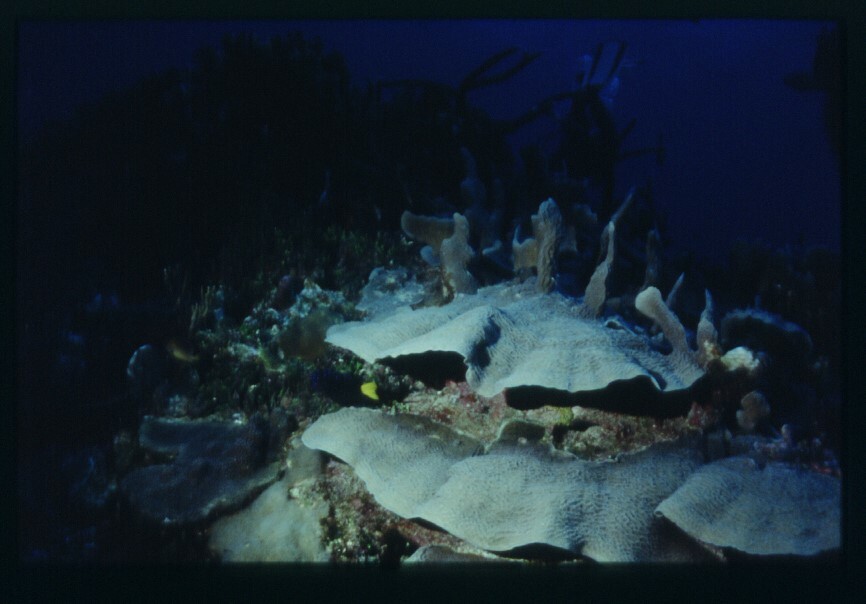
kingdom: Animalia
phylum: Chordata
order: Perciformes
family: Pomacentridae
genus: Microspathodon
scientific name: Microspathodon chrysurus
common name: Yellowtail damselfish
